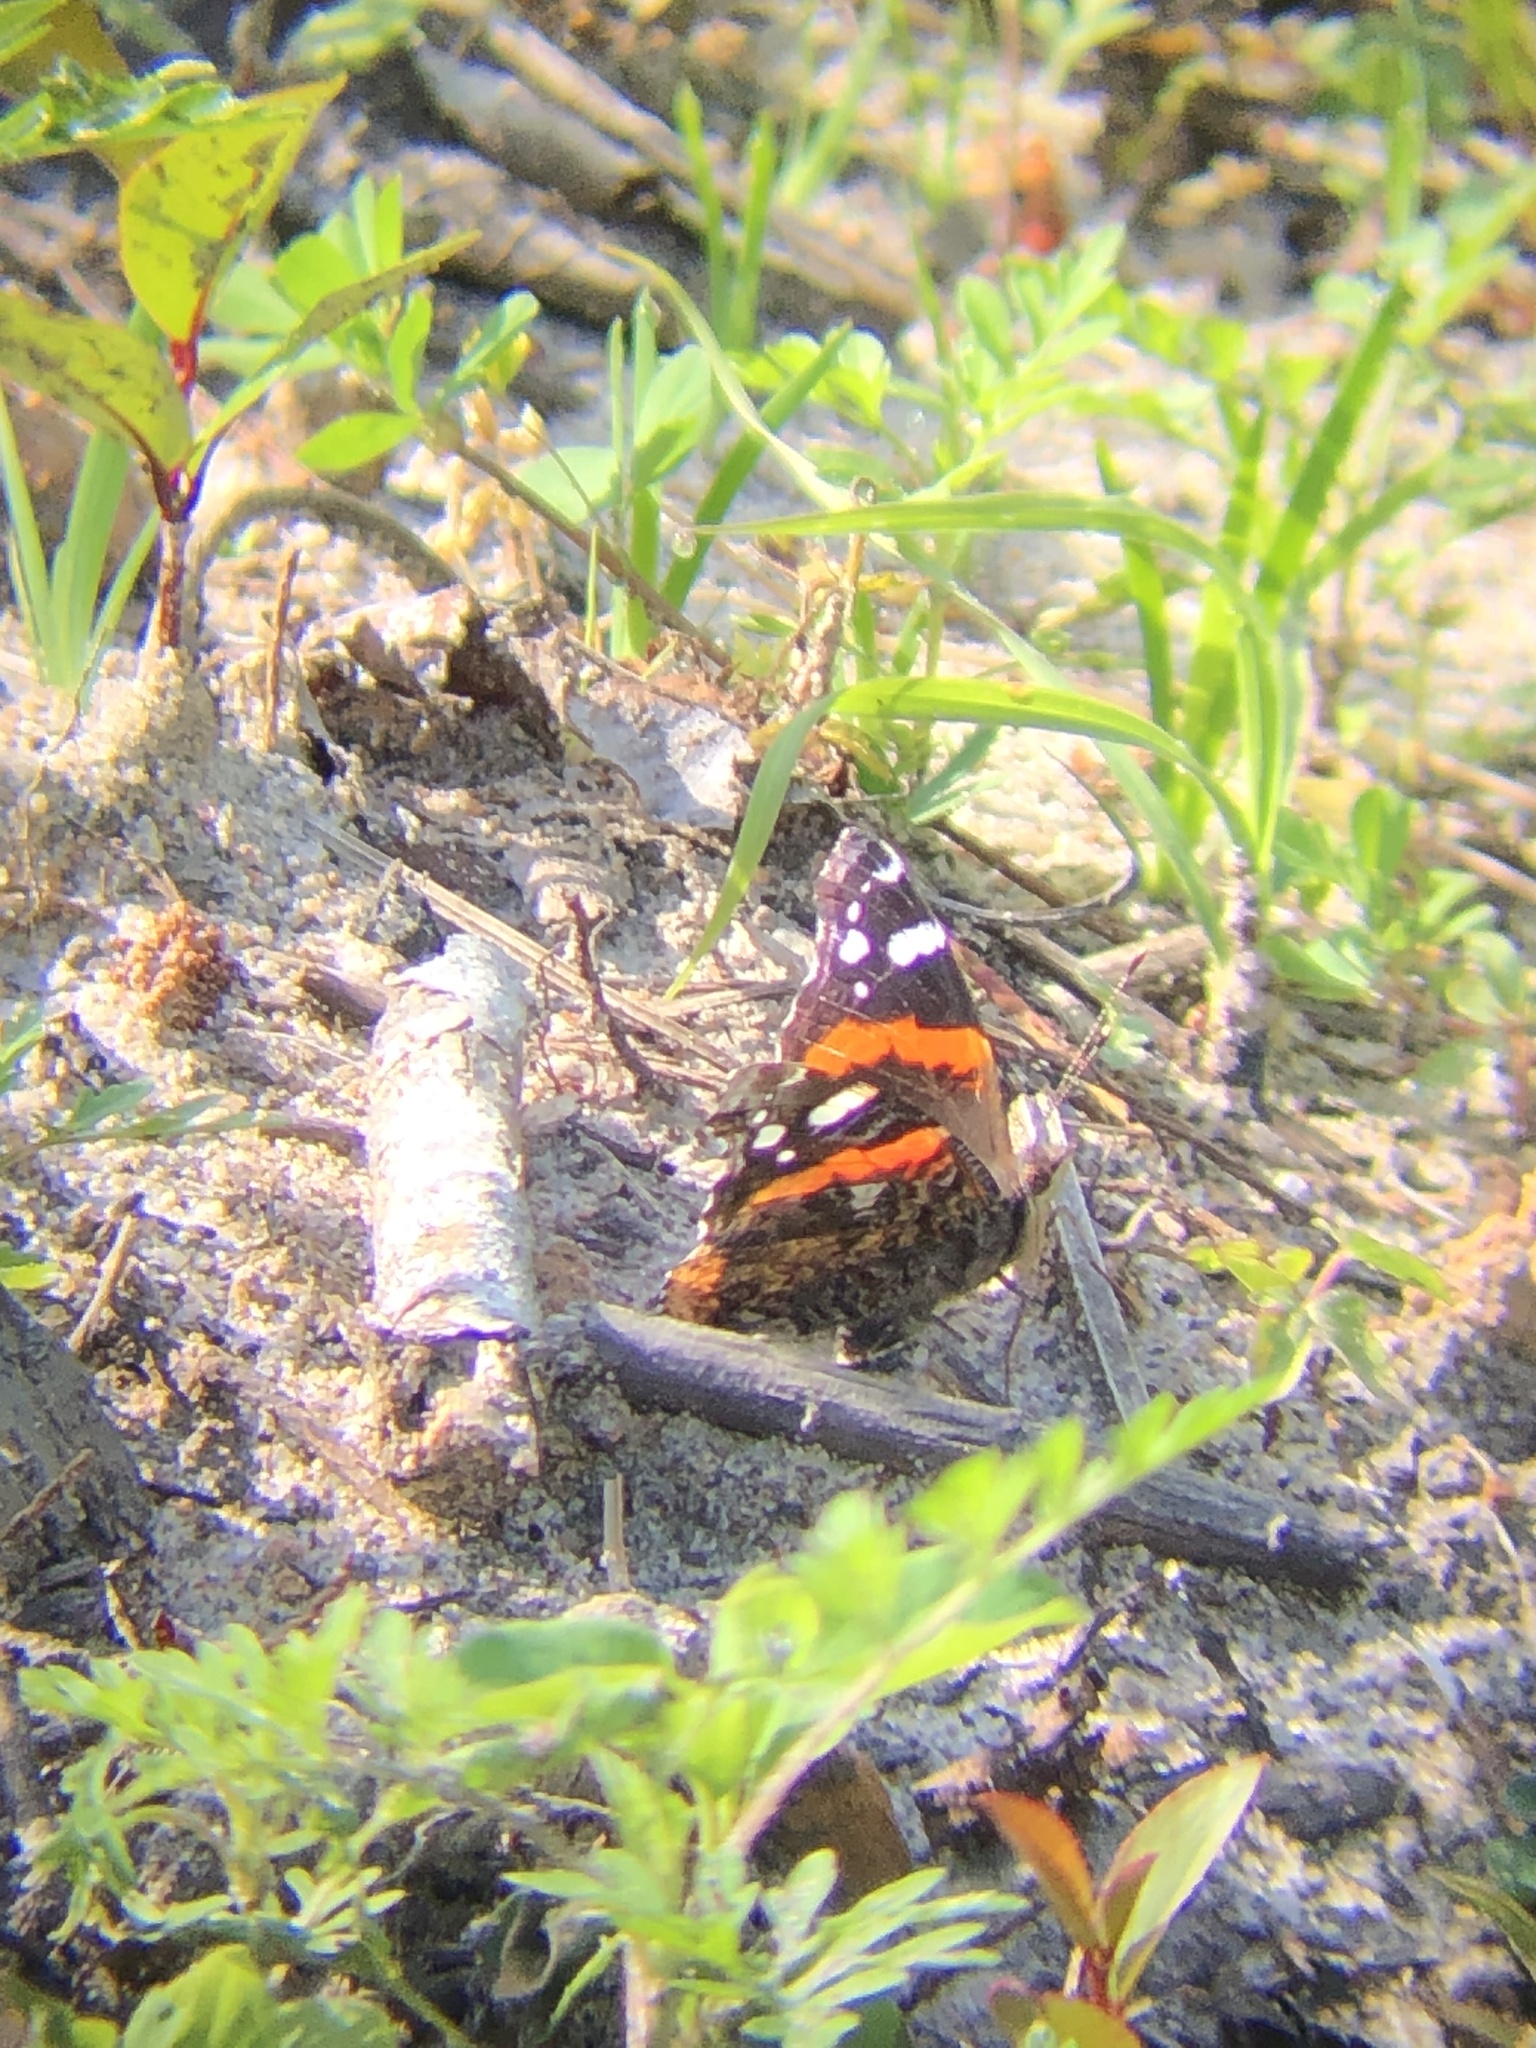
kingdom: Animalia
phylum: Arthropoda
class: Insecta
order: Lepidoptera
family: Nymphalidae
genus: Vanessa
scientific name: Vanessa atalanta
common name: Red admiral
